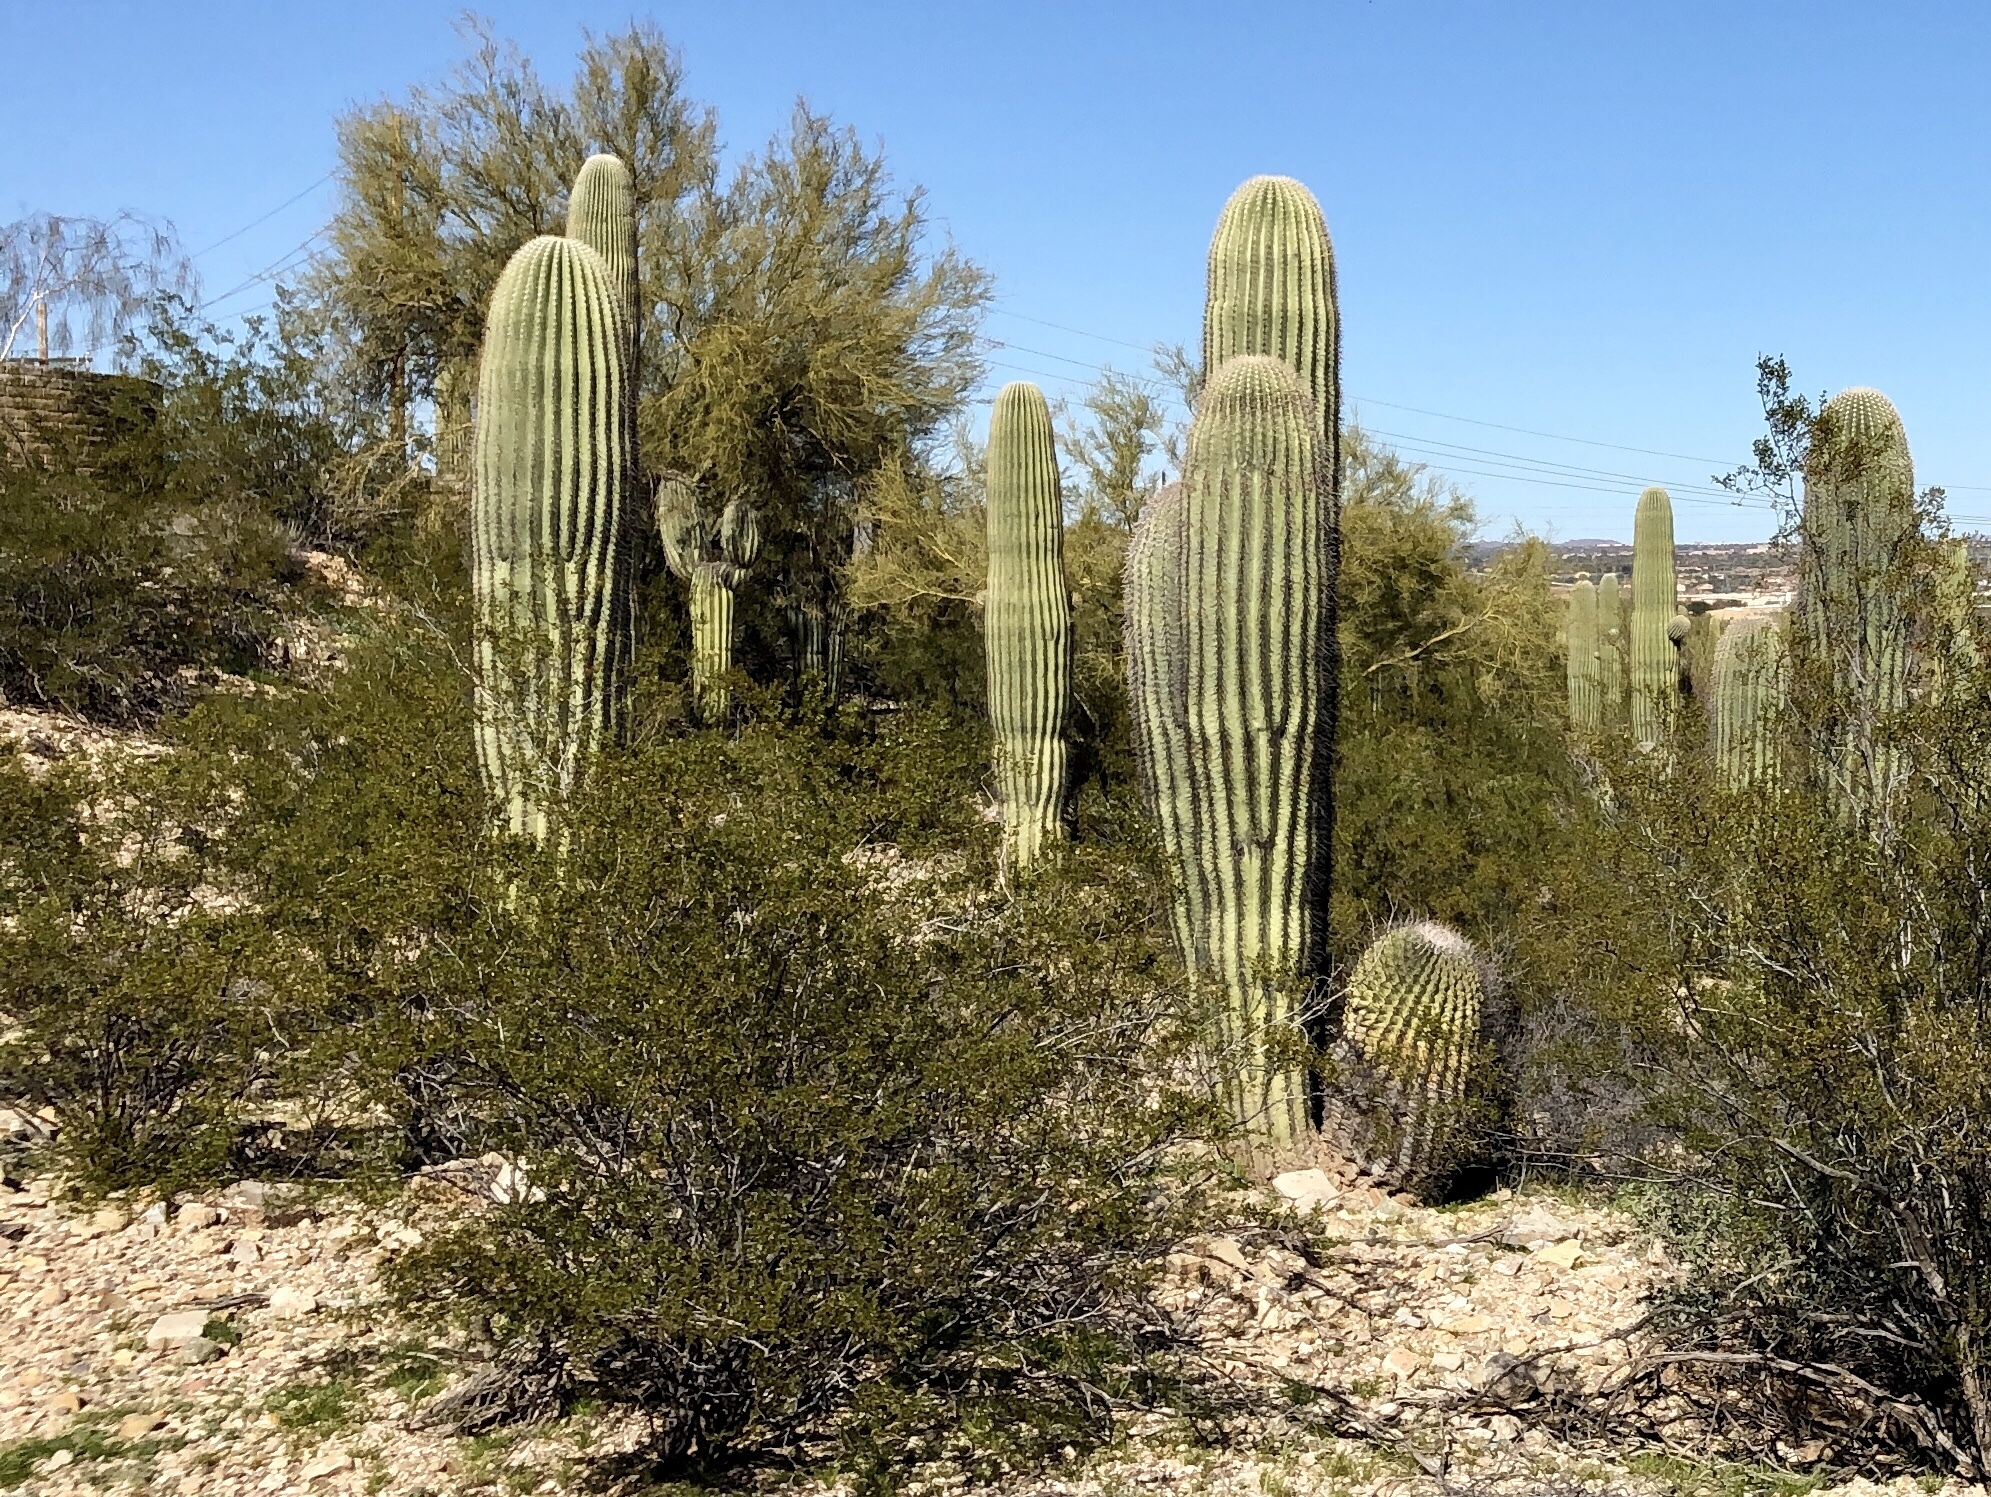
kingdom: Plantae
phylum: Tracheophyta
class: Magnoliopsida
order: Caryophyllales
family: Cactaceae
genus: Carnegiea
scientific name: Carnegiea gigantea
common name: Saguaro
